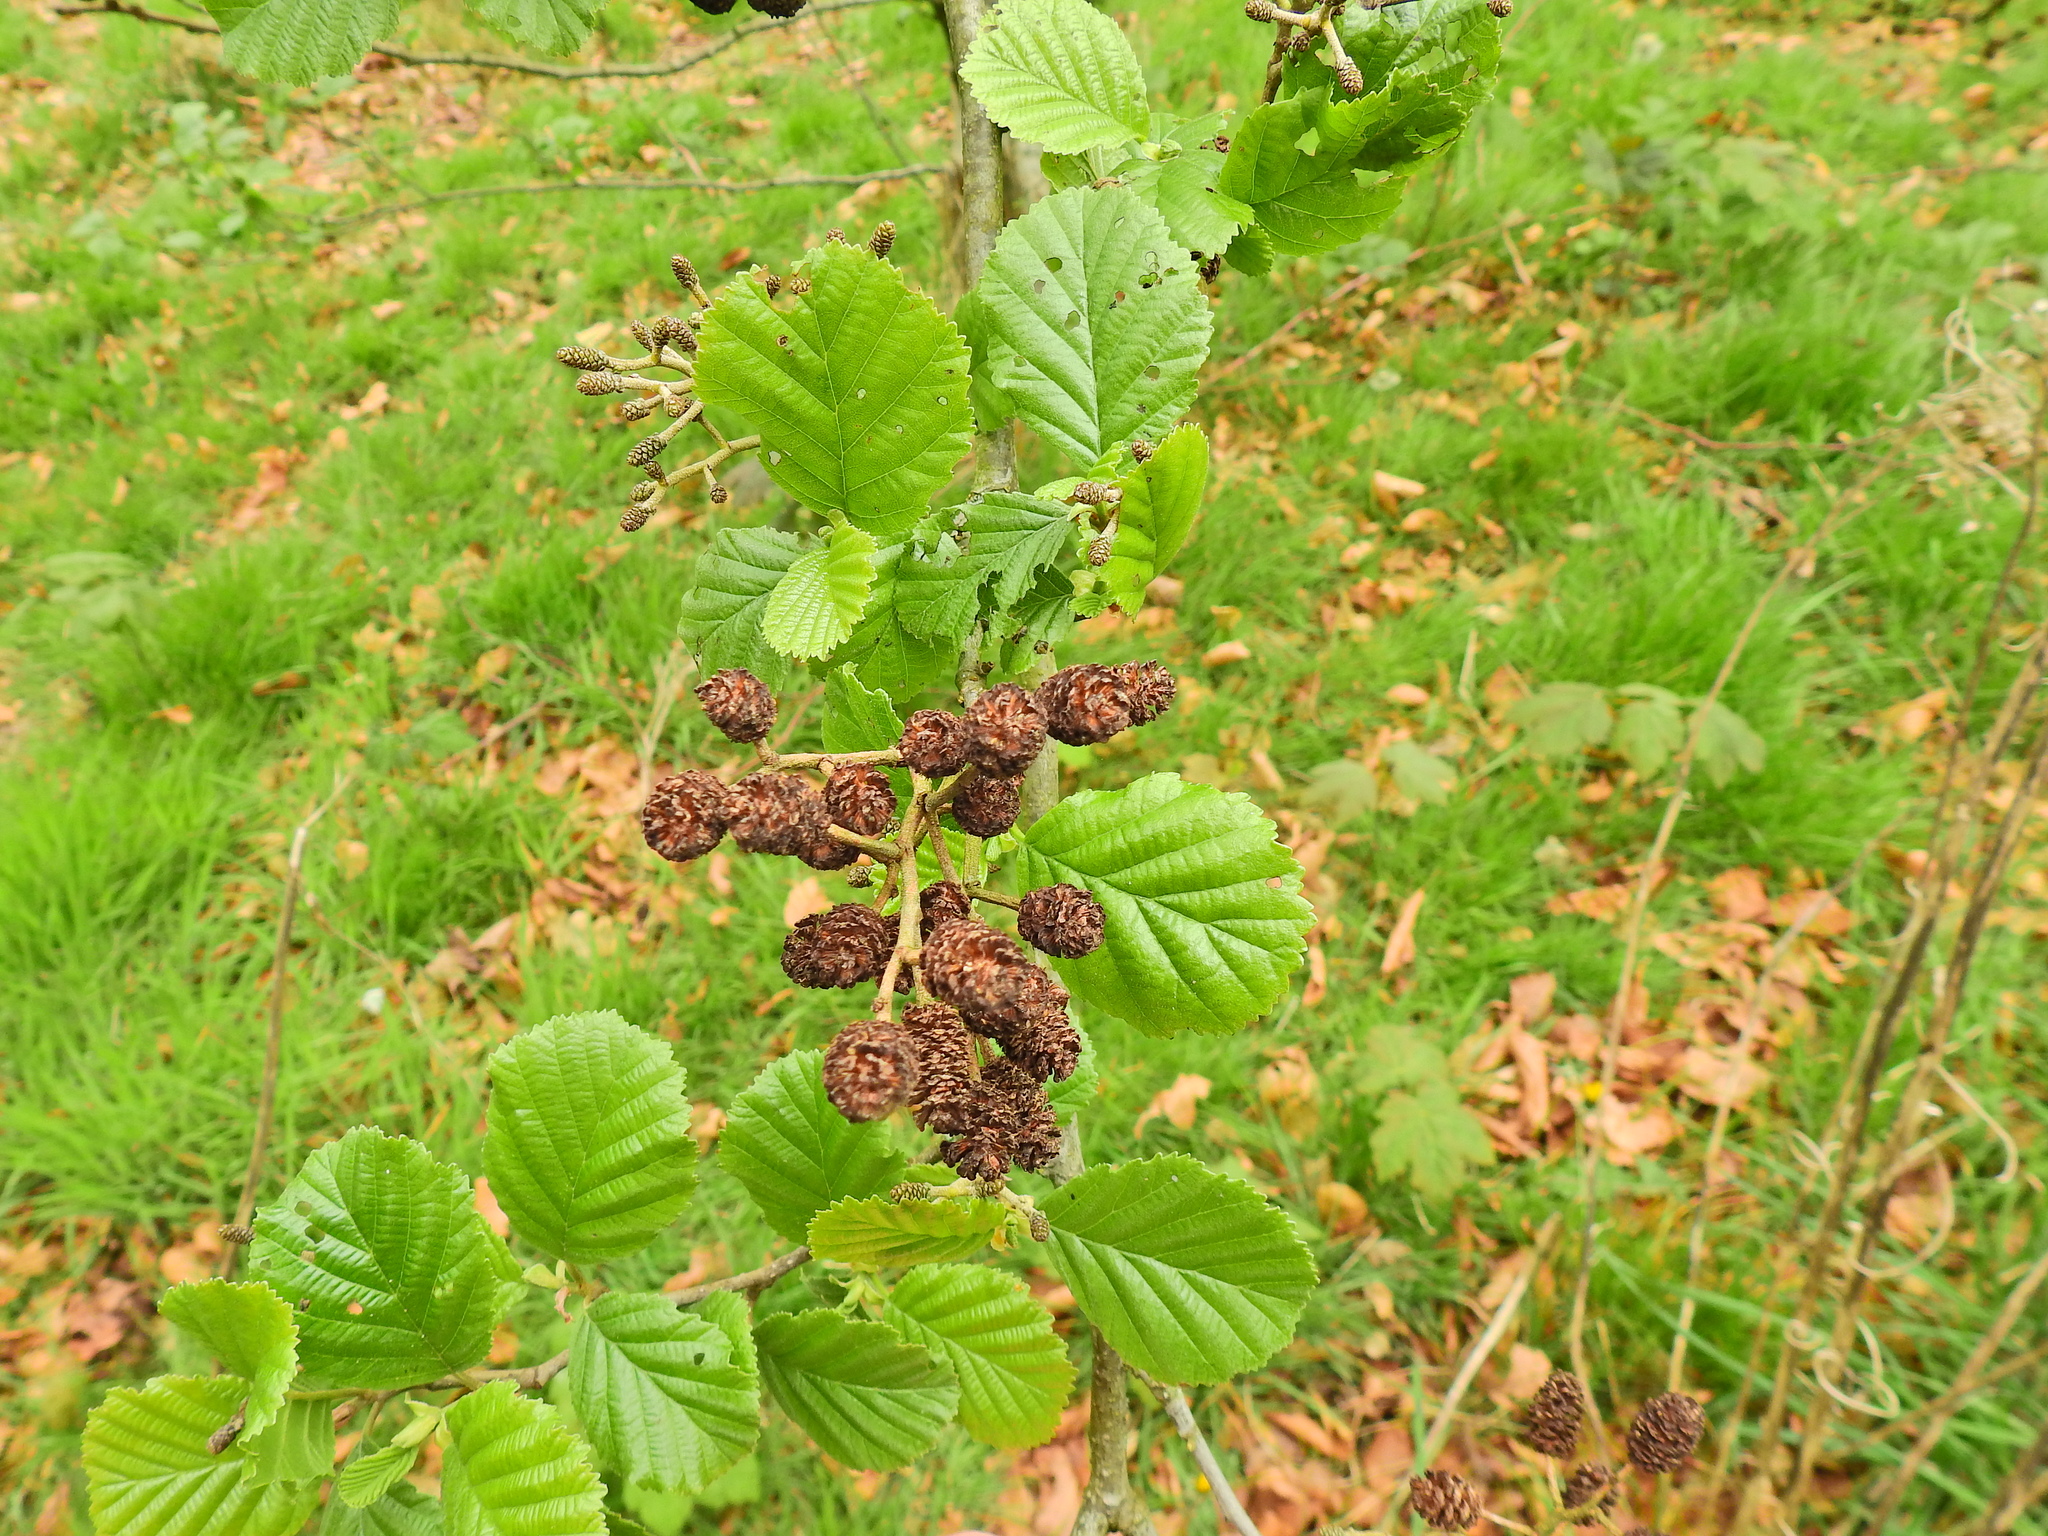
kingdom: Plantae
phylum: Tracheophyta
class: Magnoliopsida
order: Fagales
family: Betulaceae
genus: Alnus
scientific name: Alnus glutinosa
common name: Black alder
